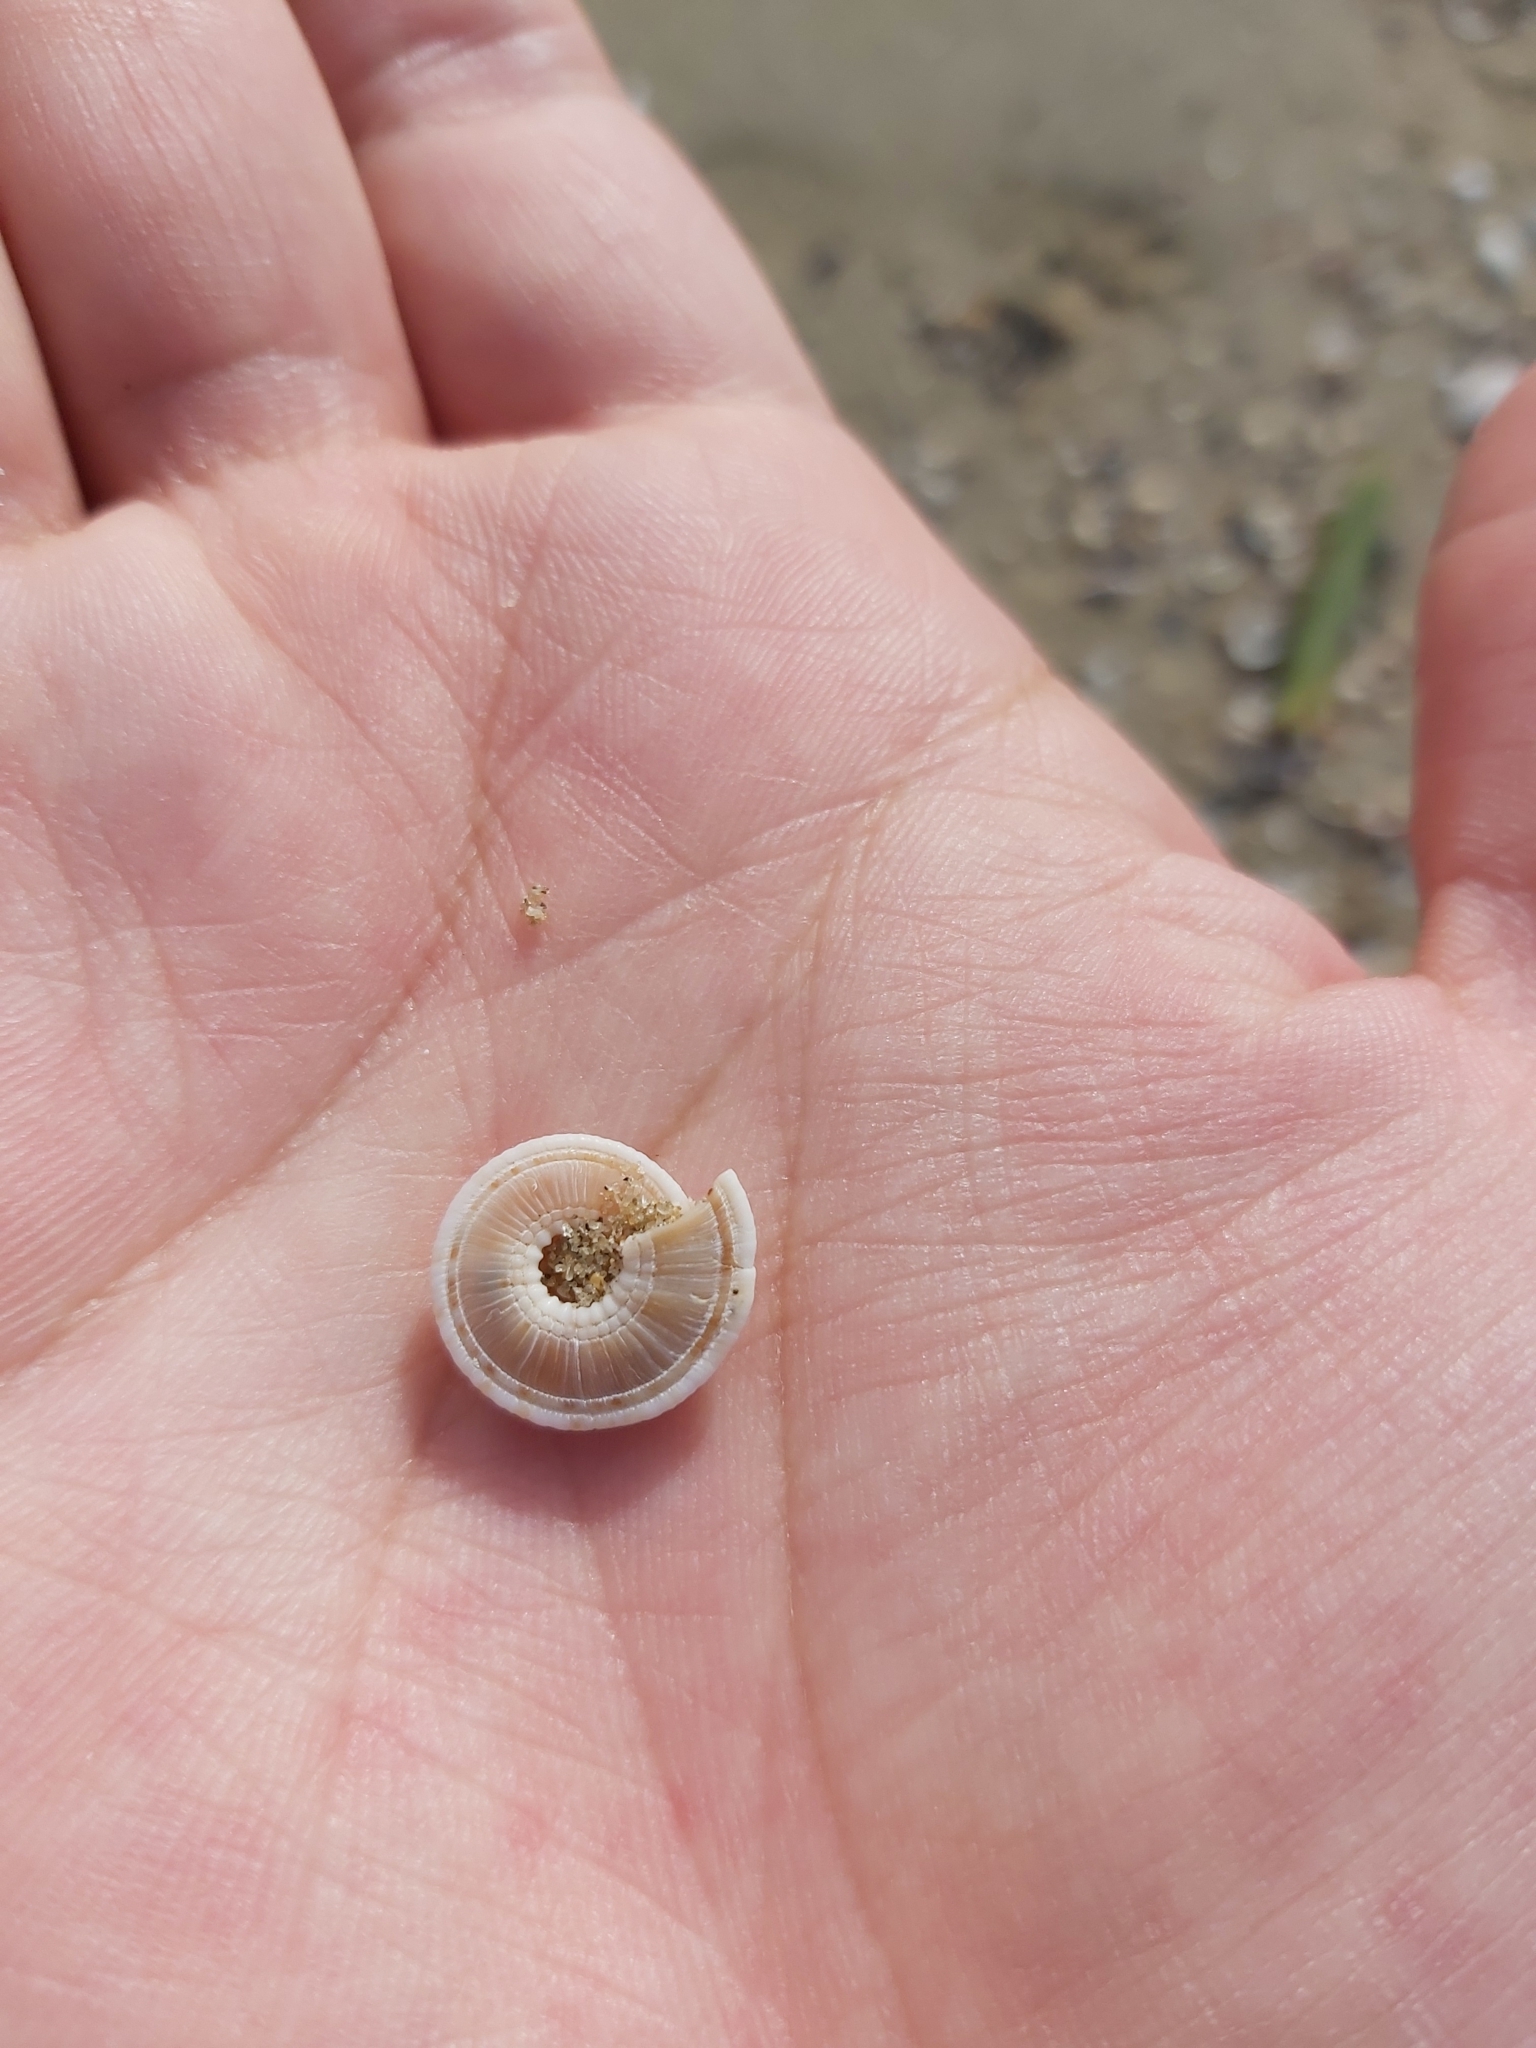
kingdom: Animalia
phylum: Mollusca
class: Gastropoda
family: Architectonicidae
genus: Architectonica
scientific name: Architectonica perdix
